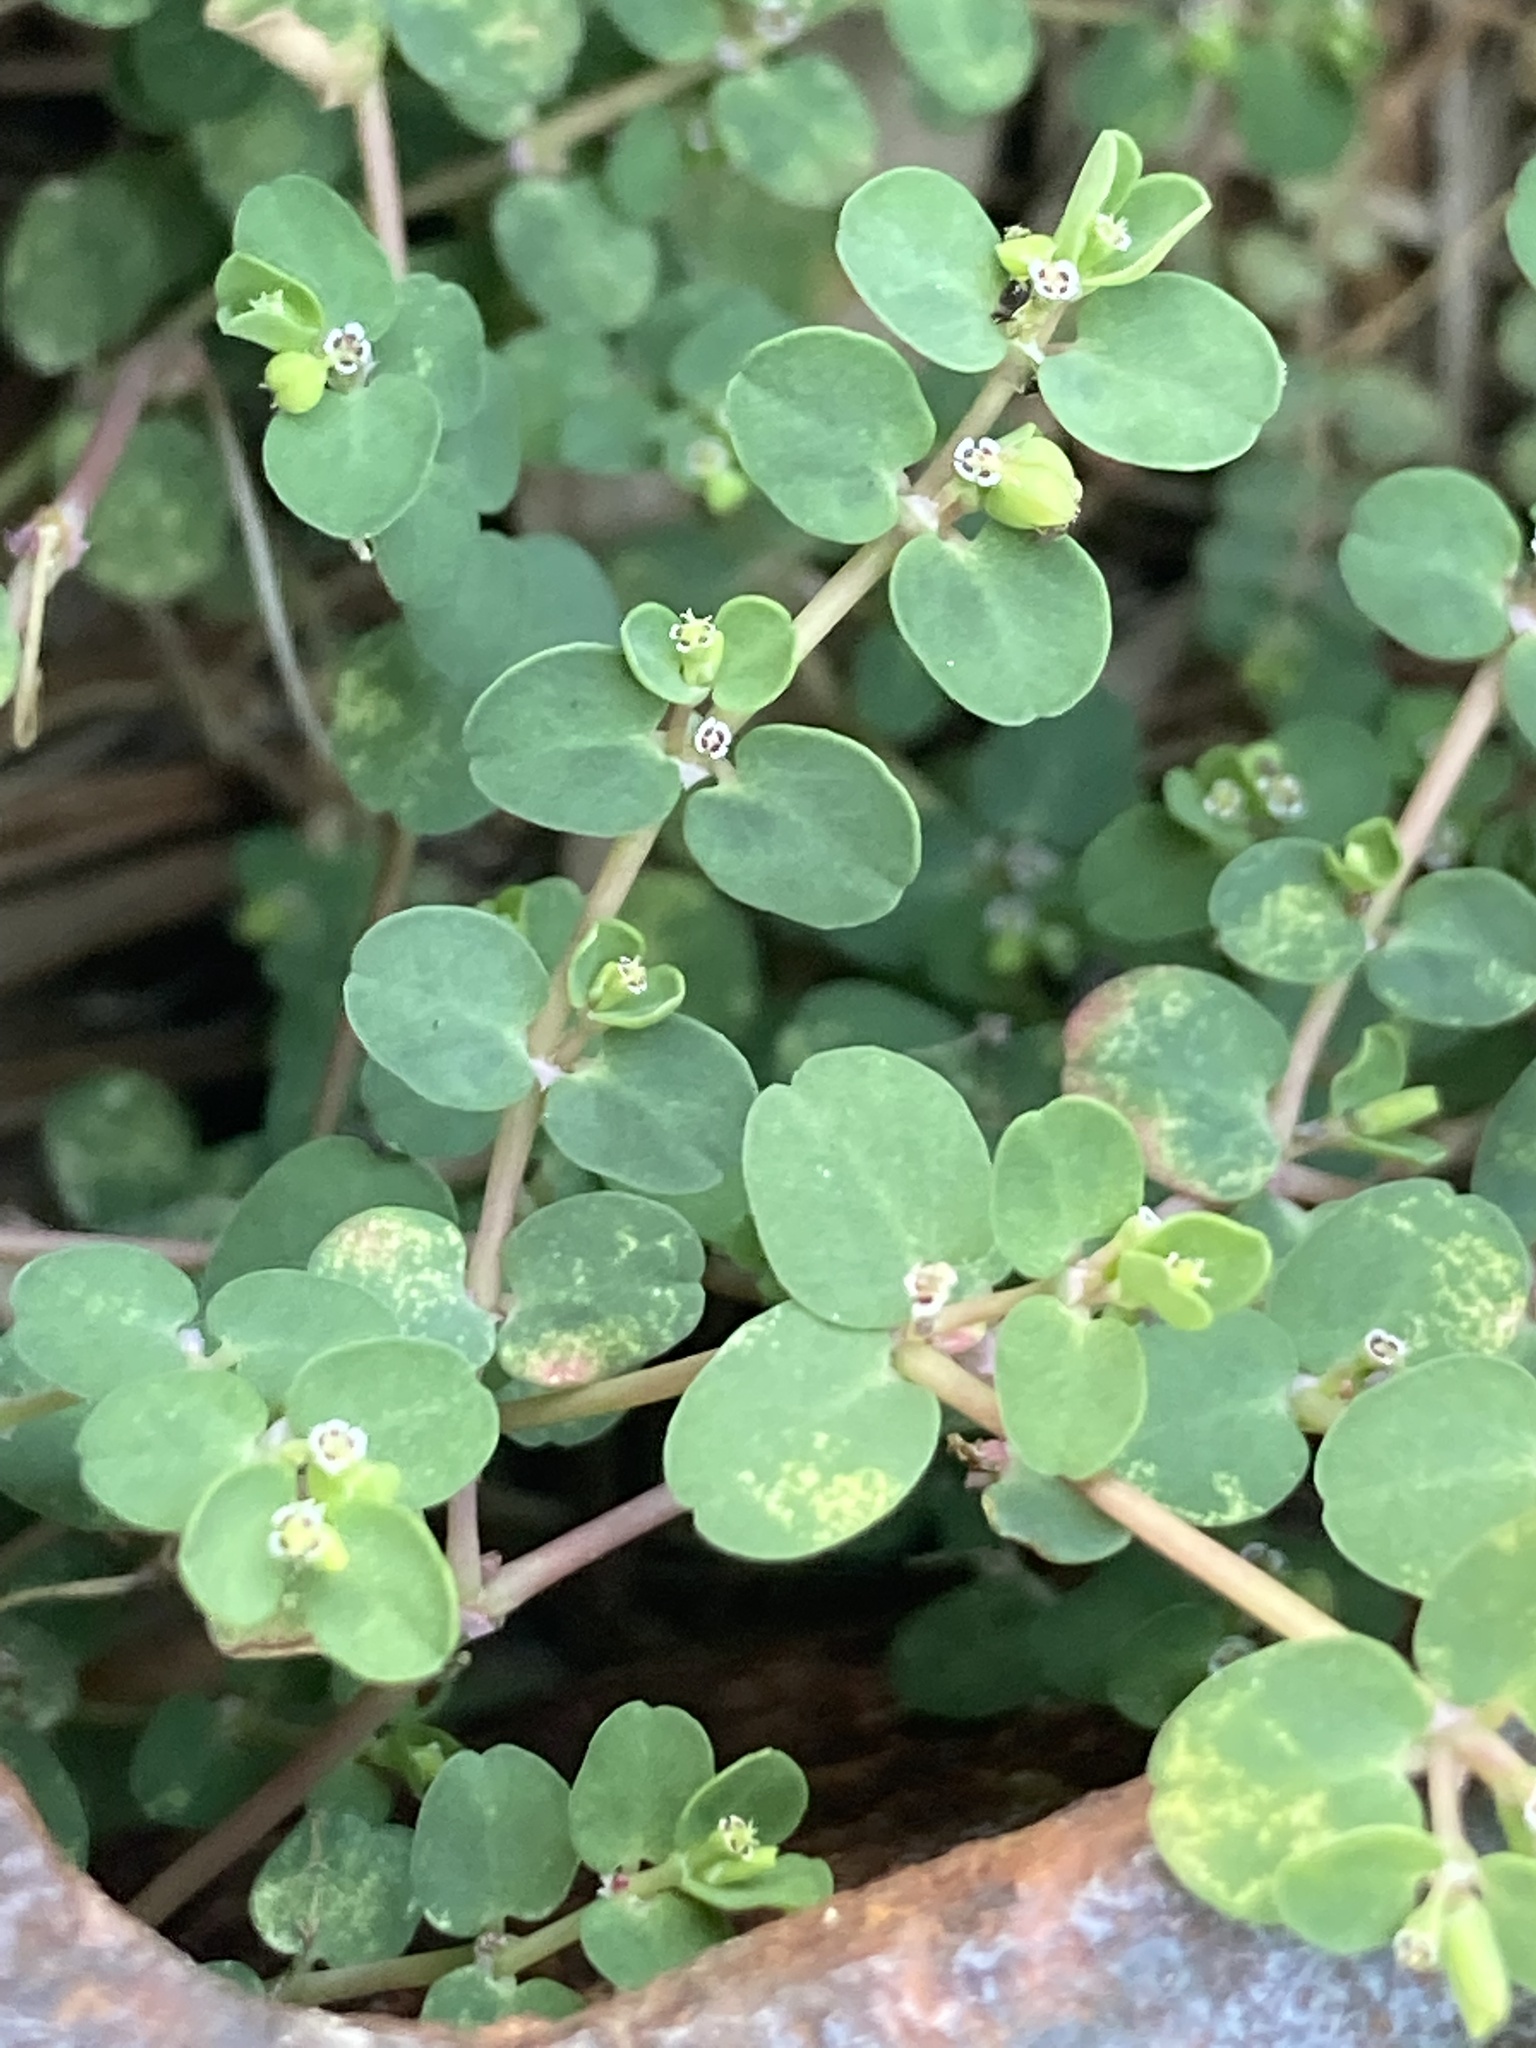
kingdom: Plantae
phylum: Tracheophyta
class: Magnoliopsida
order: Malpighiales
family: Euphorbiaceae
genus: Euphorbia
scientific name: Euphorbia serpens
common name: Matted sandmat
